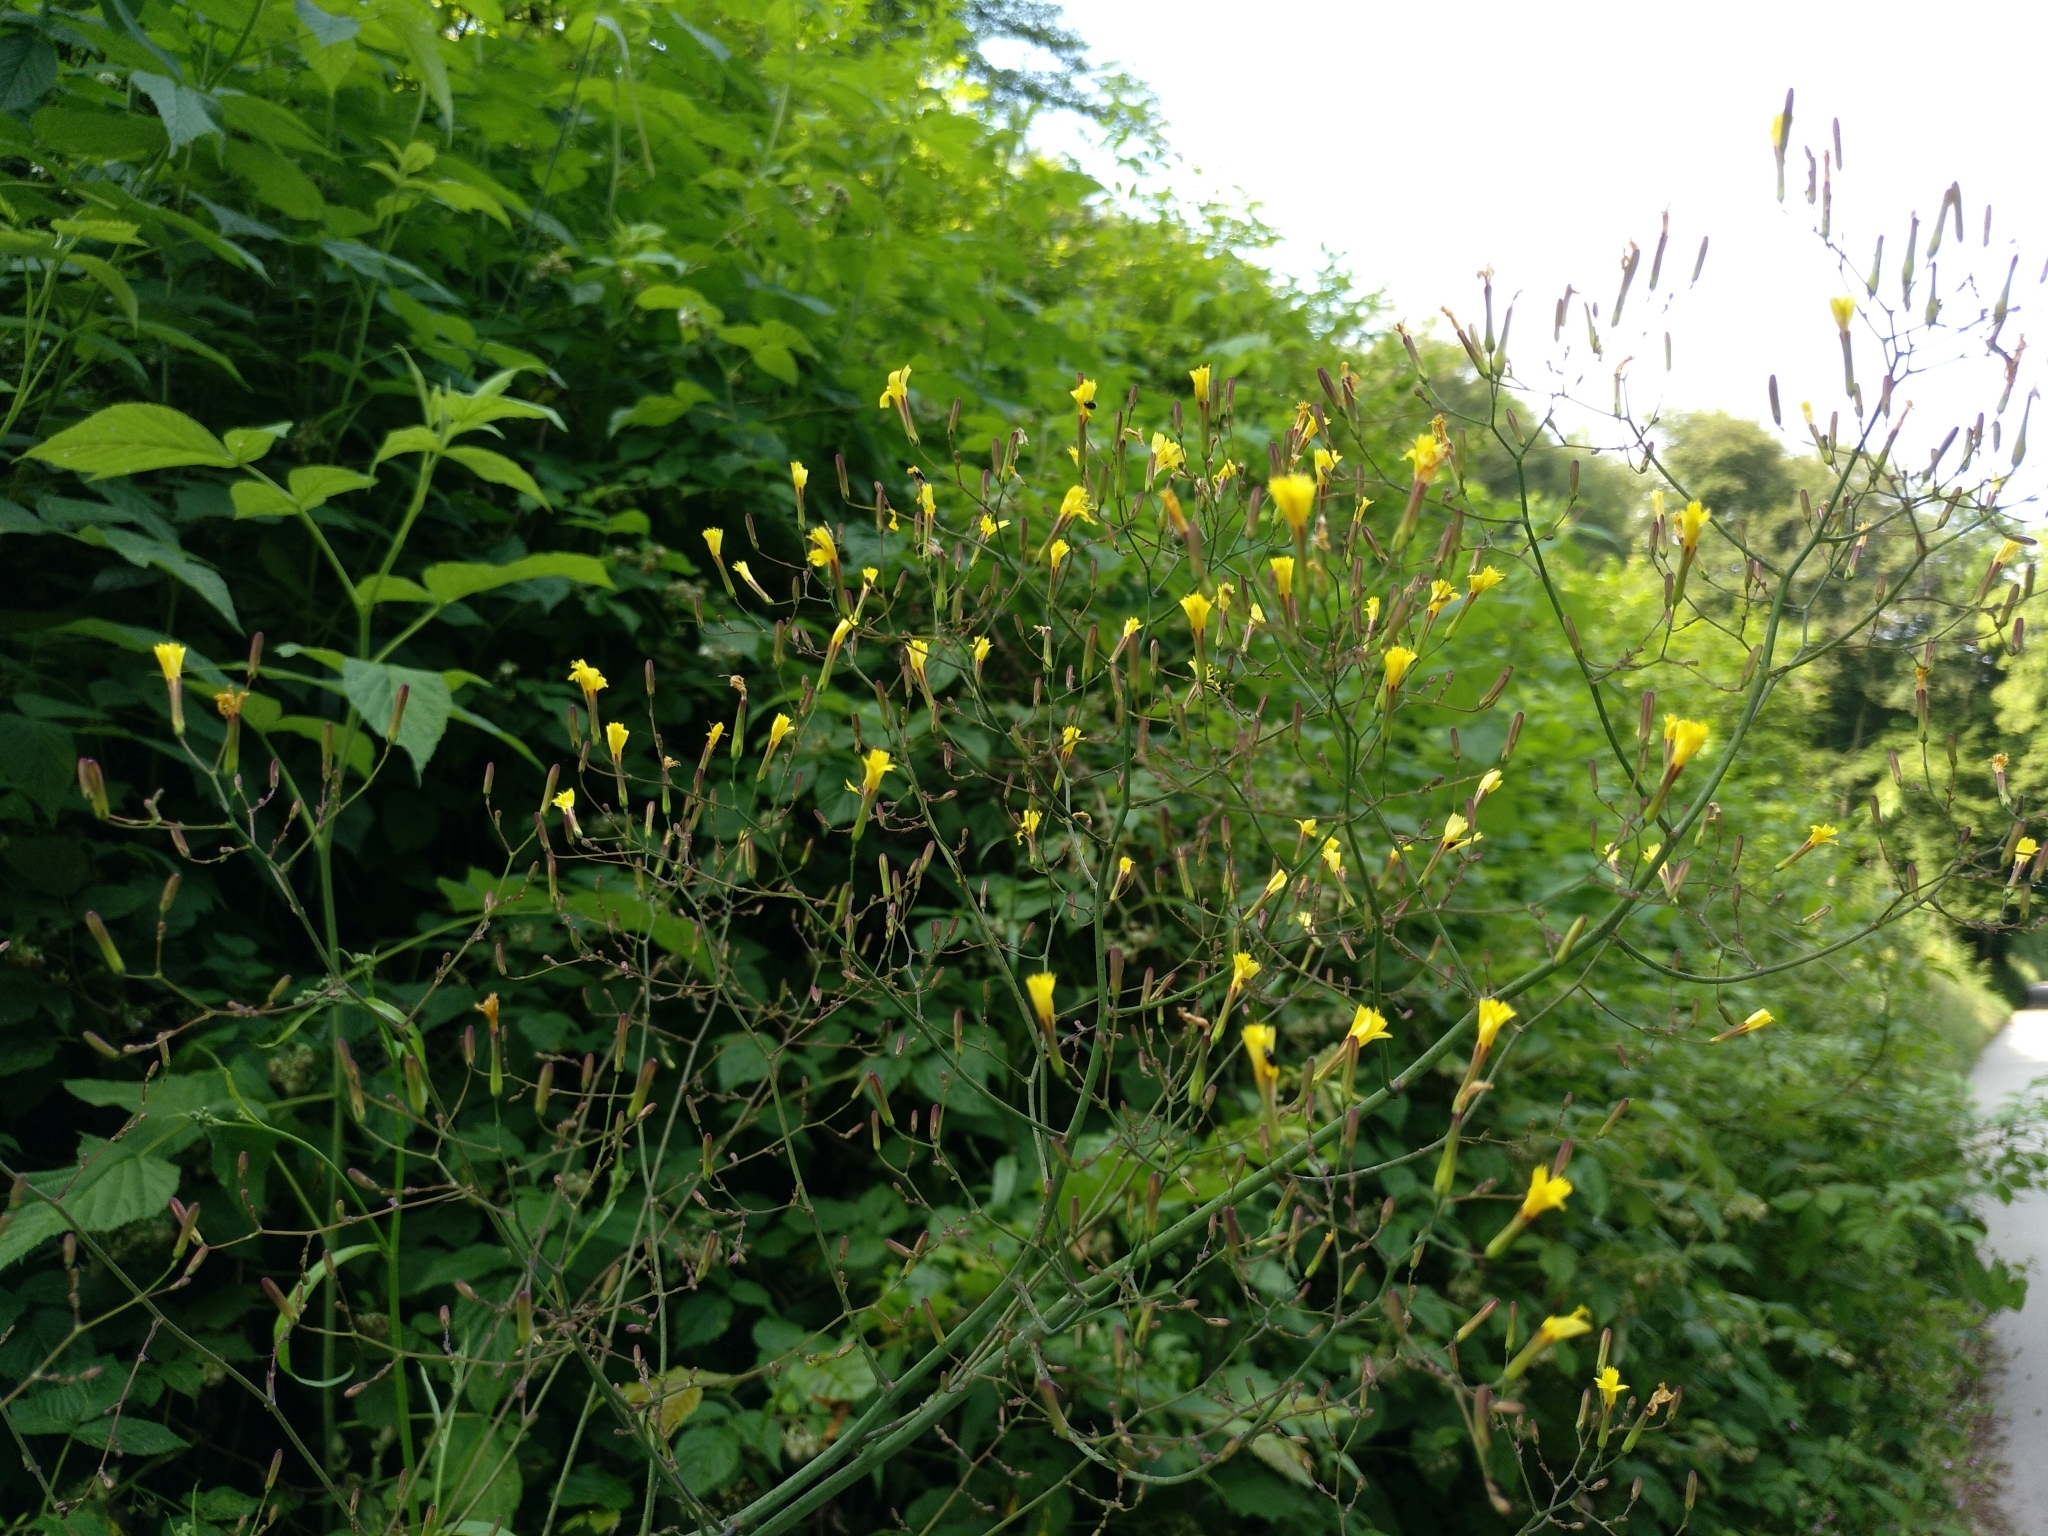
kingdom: Plantae
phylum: Tracheophyta
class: Magnoliopsida
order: Asterales
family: Asteraceae
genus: Mycelis
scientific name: Mycelis muralis
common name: Wall lettuce
